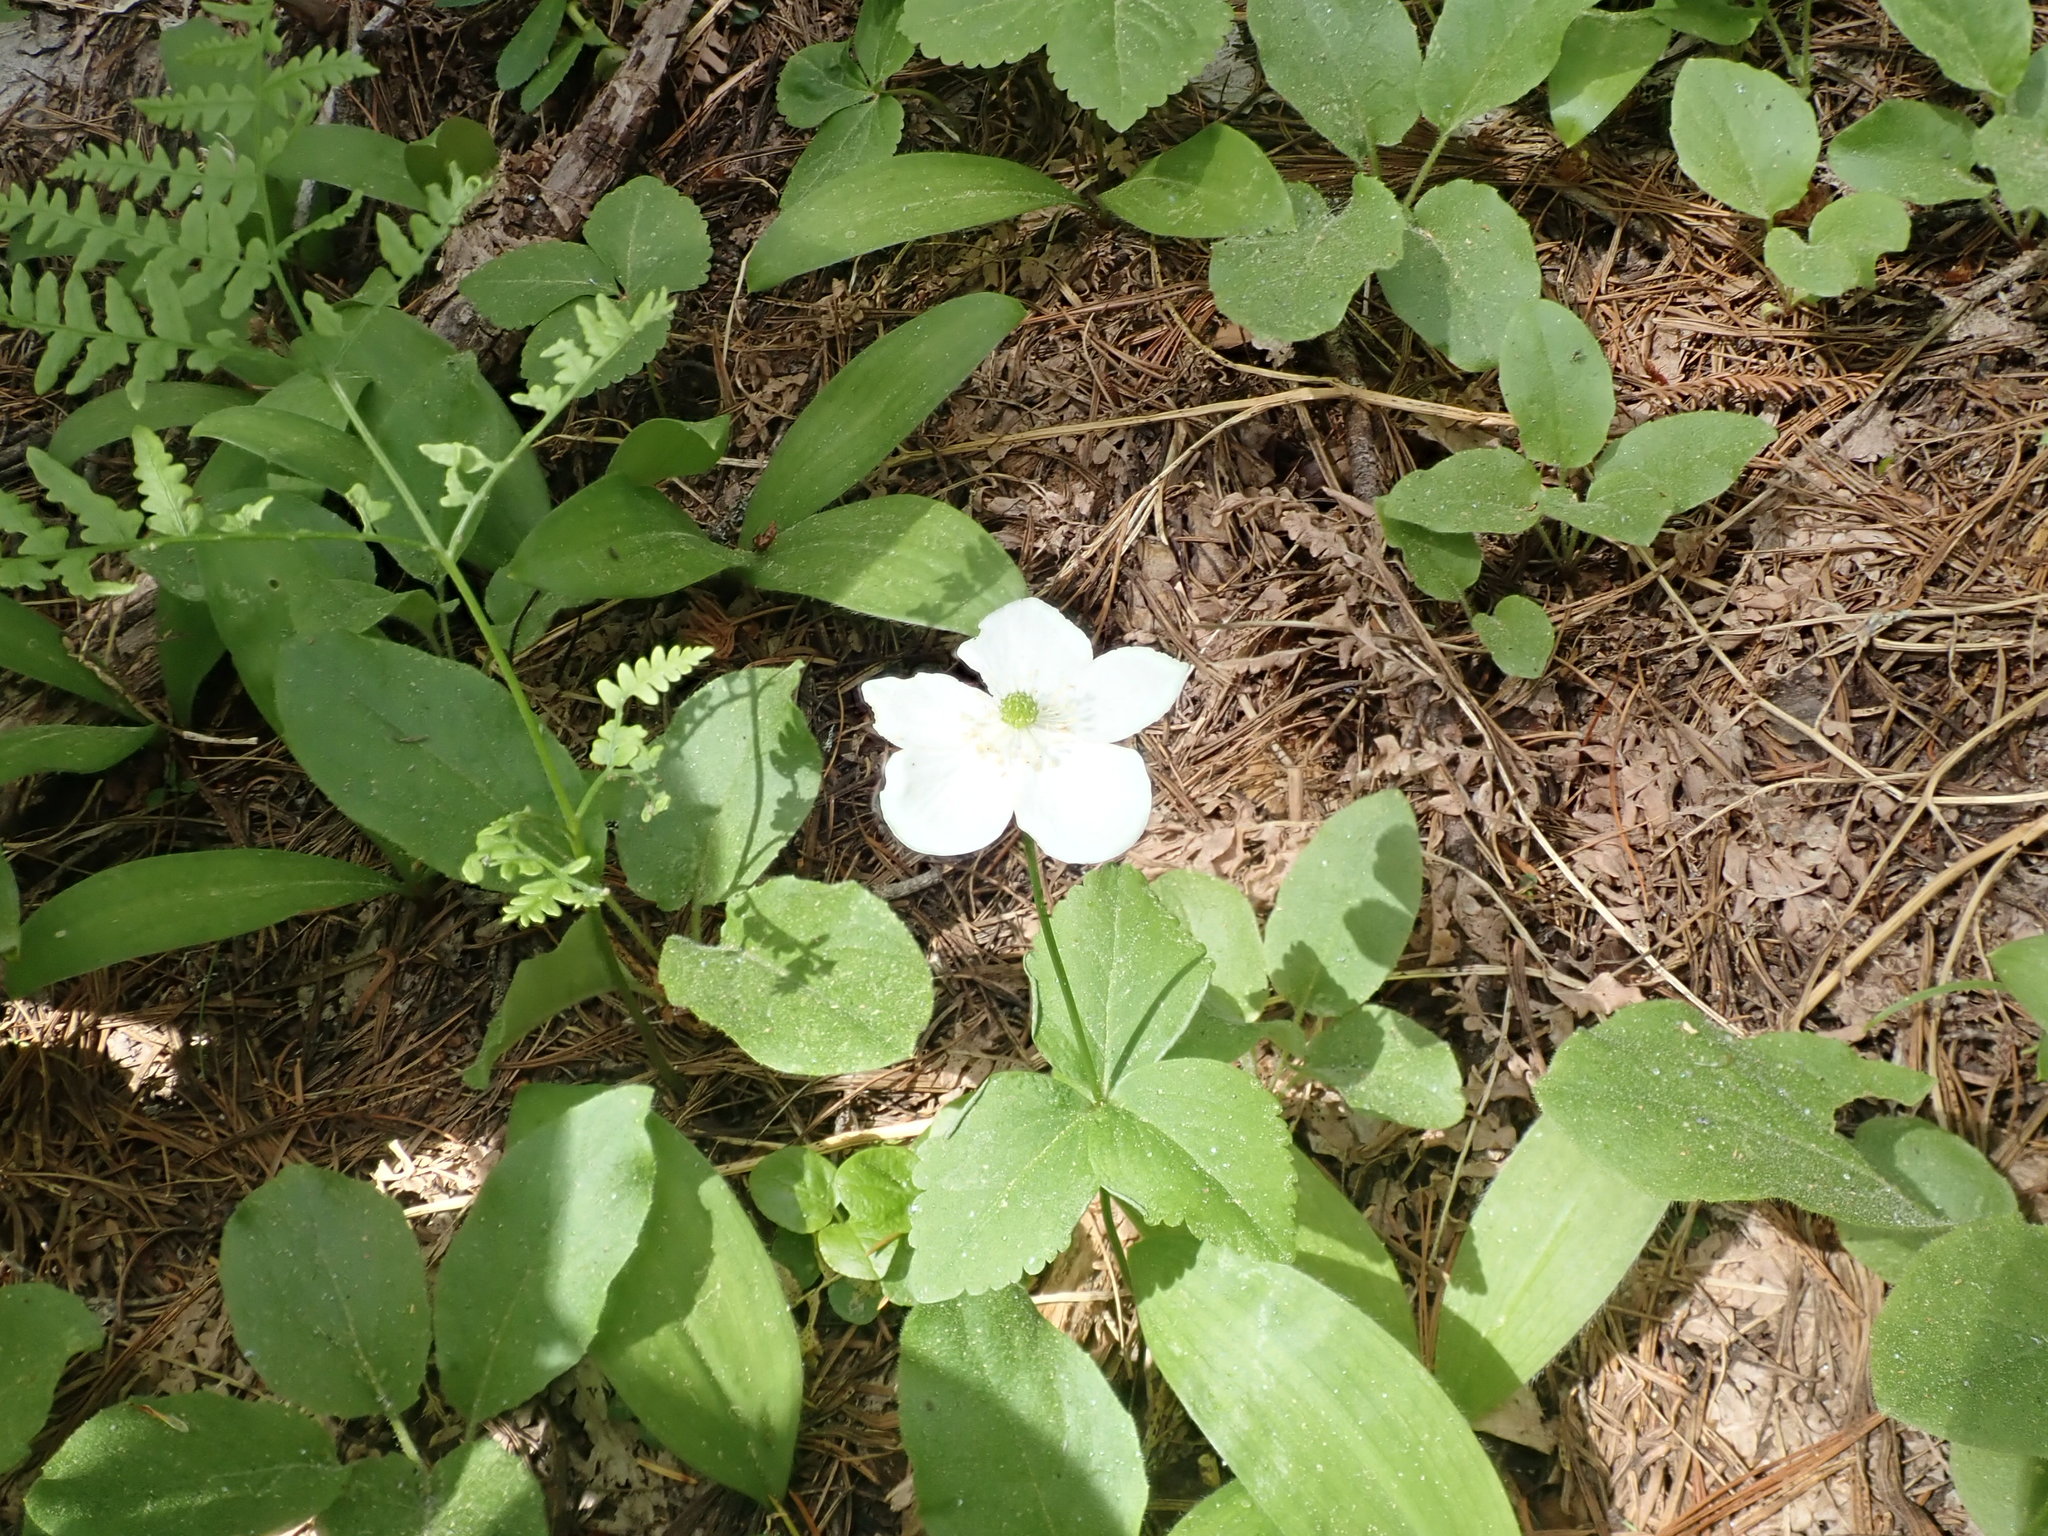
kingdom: Plantae
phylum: Tracheophyta
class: Magnoliopsida
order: Ranunculales
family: Ranunculaceae
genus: Anemonastrum
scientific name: Anemonastrum deltoideum
